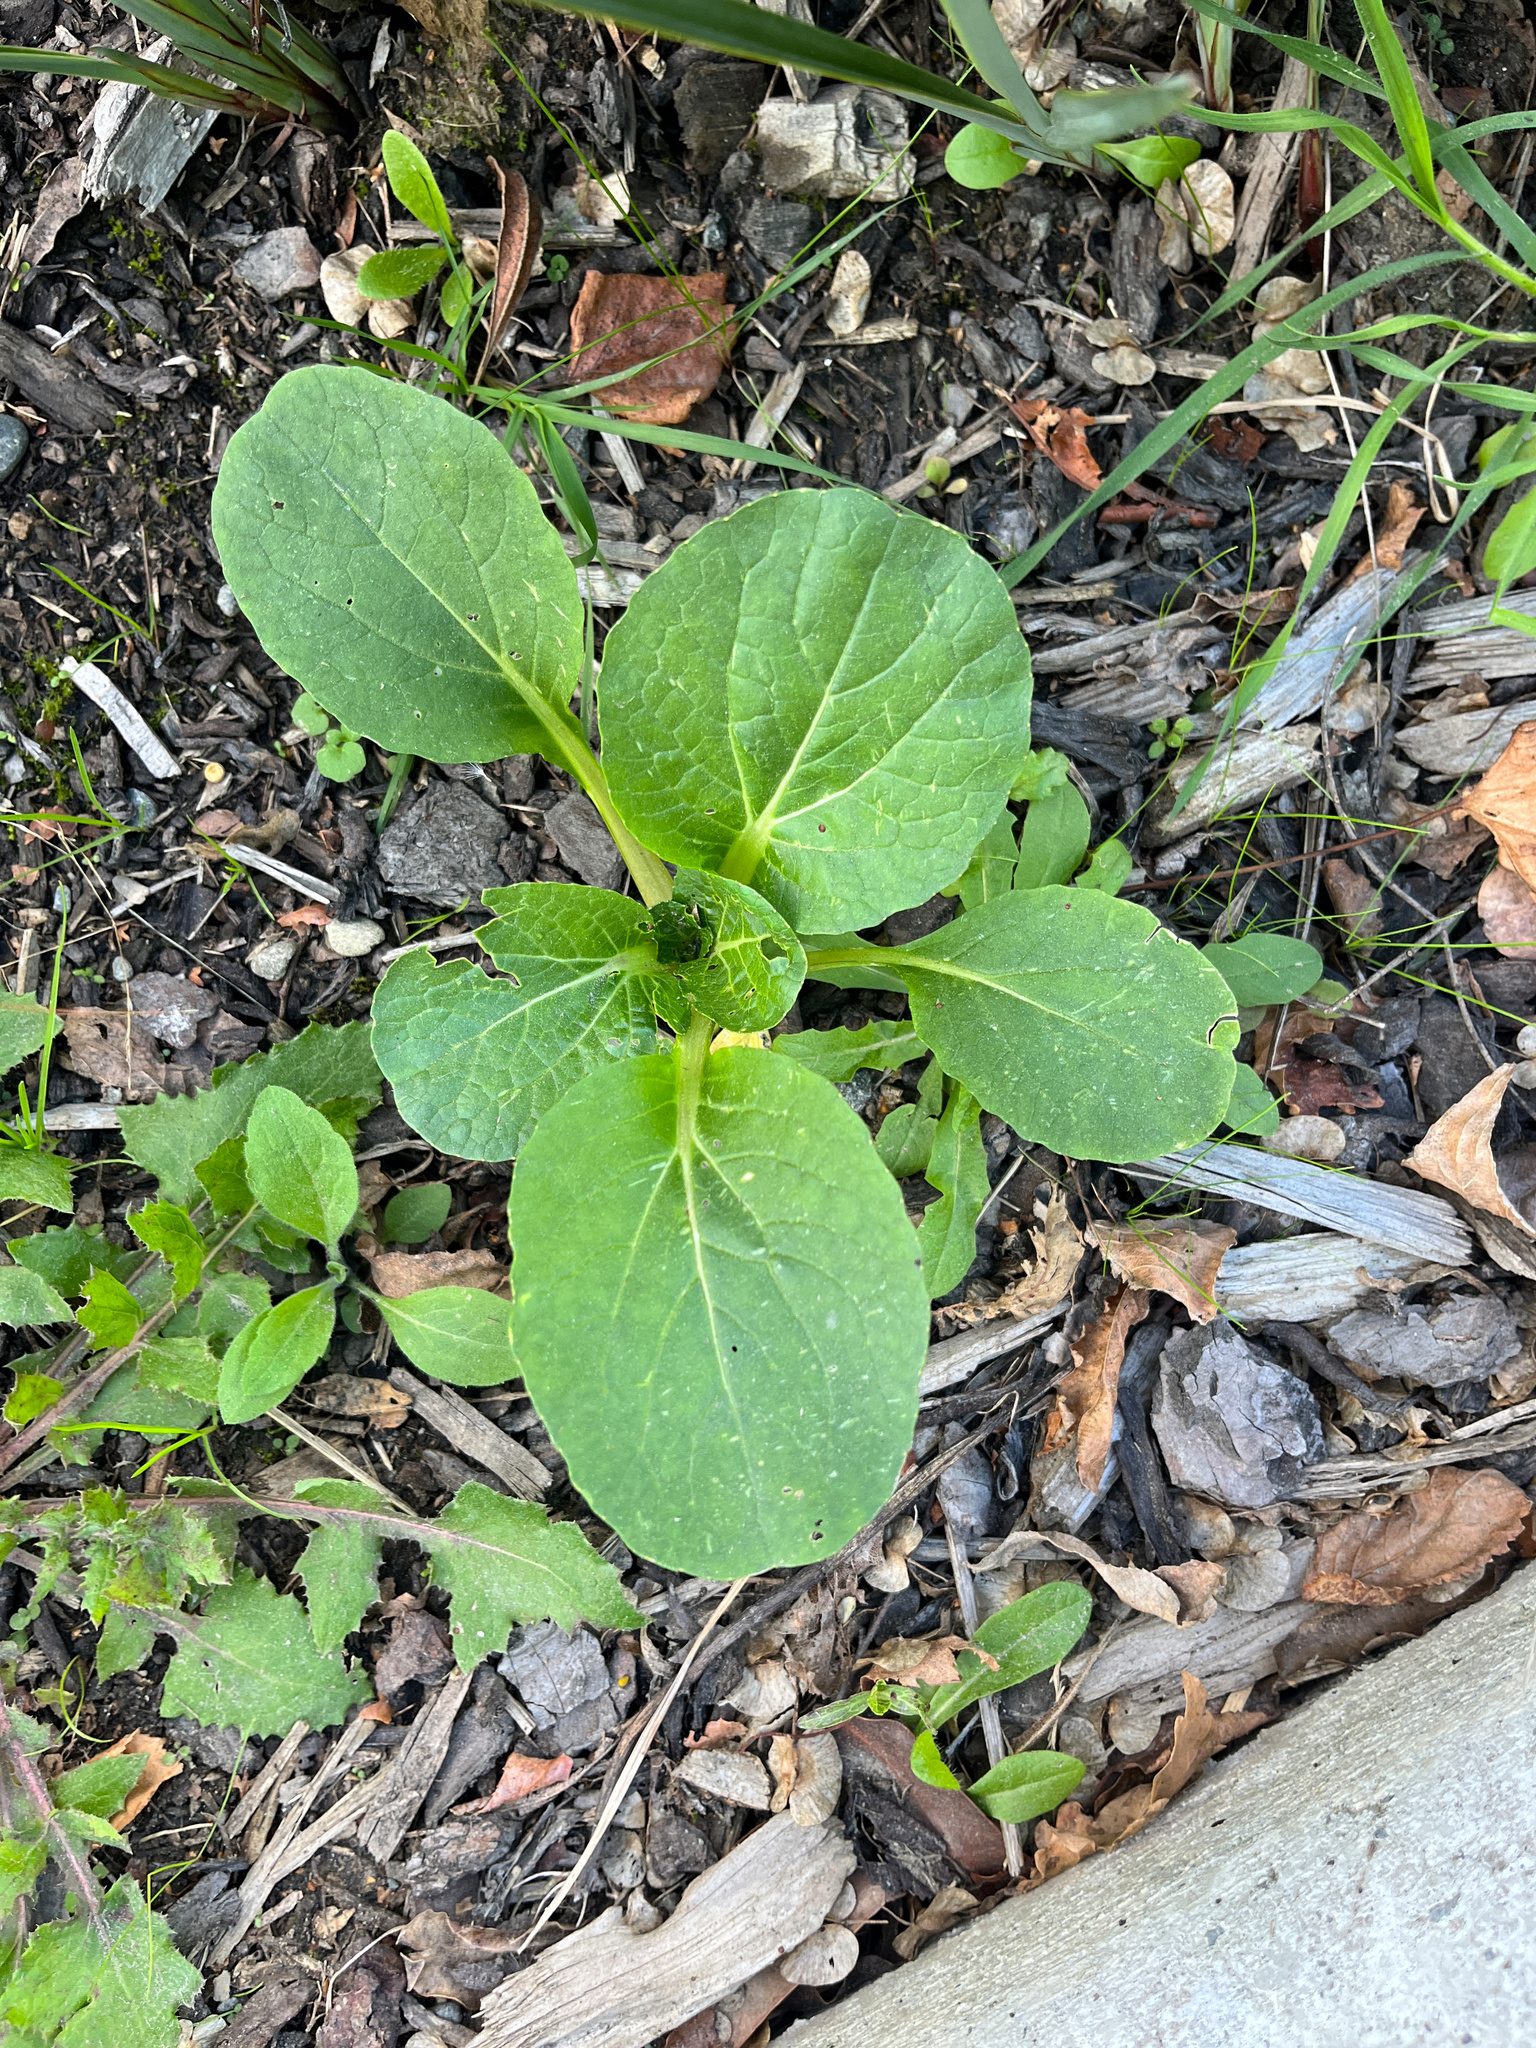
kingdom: Plantae
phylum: Tracheophyta
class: Magnoliopsida
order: Brassicales
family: Brassicaceae
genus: Brassica
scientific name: Brassica rapa
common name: Field mustard
